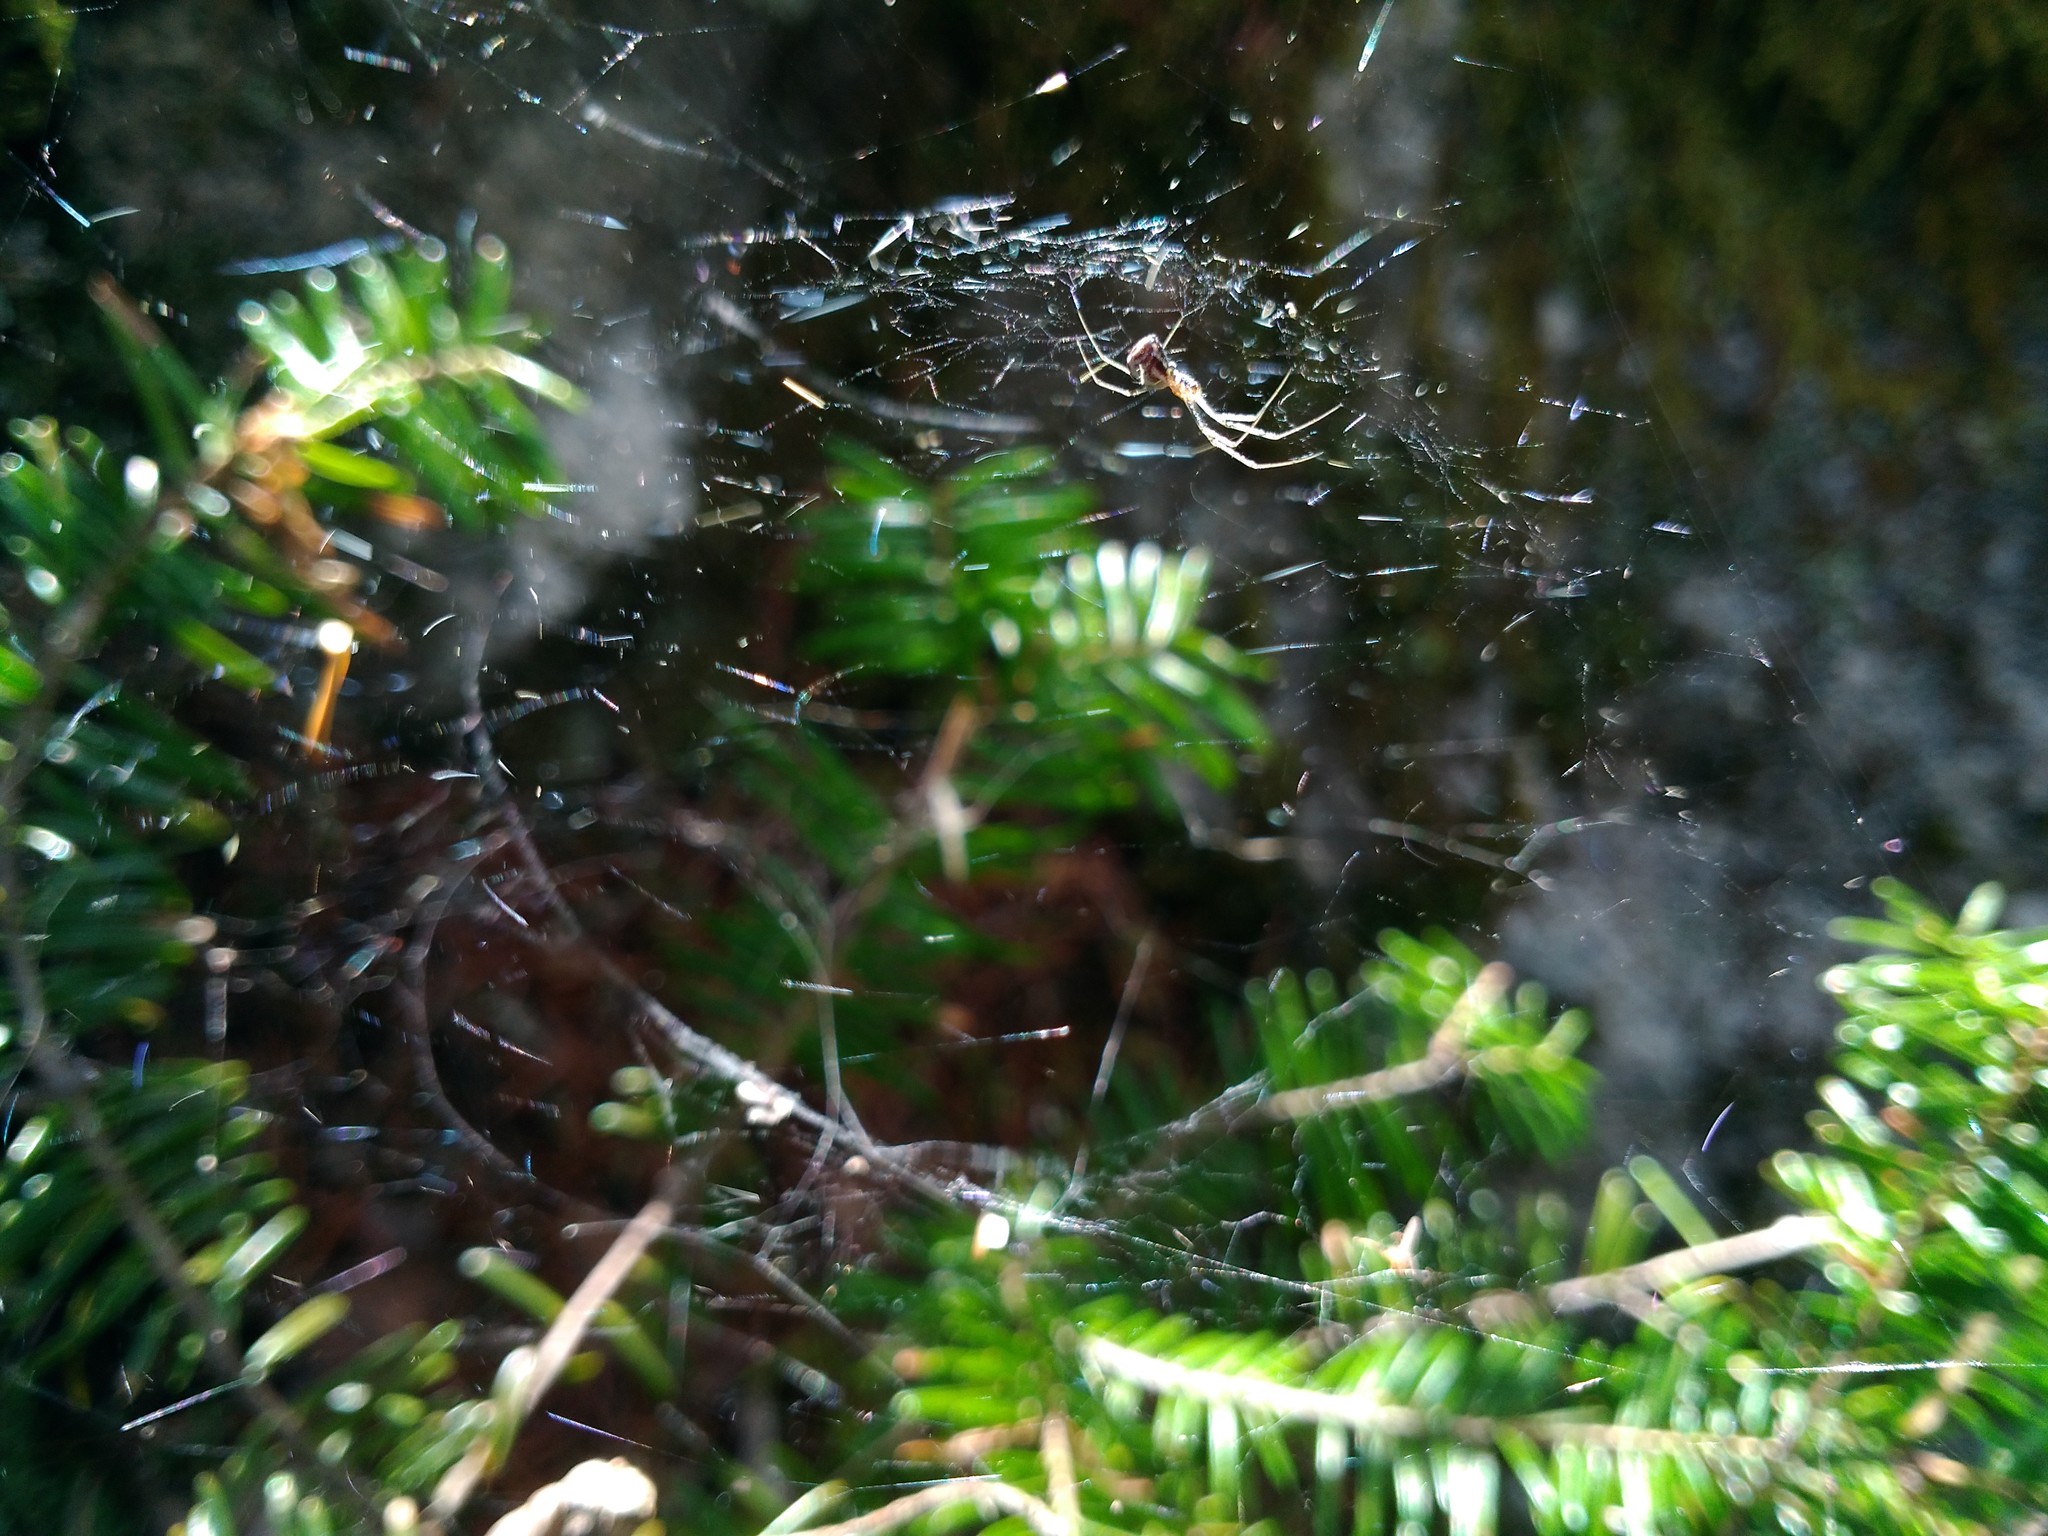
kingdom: Animalia
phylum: Arthropoda
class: Arachnida
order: Araneae
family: Linyphiidae
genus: Neriene
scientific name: Neriene radiata
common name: Filmy dome spider
